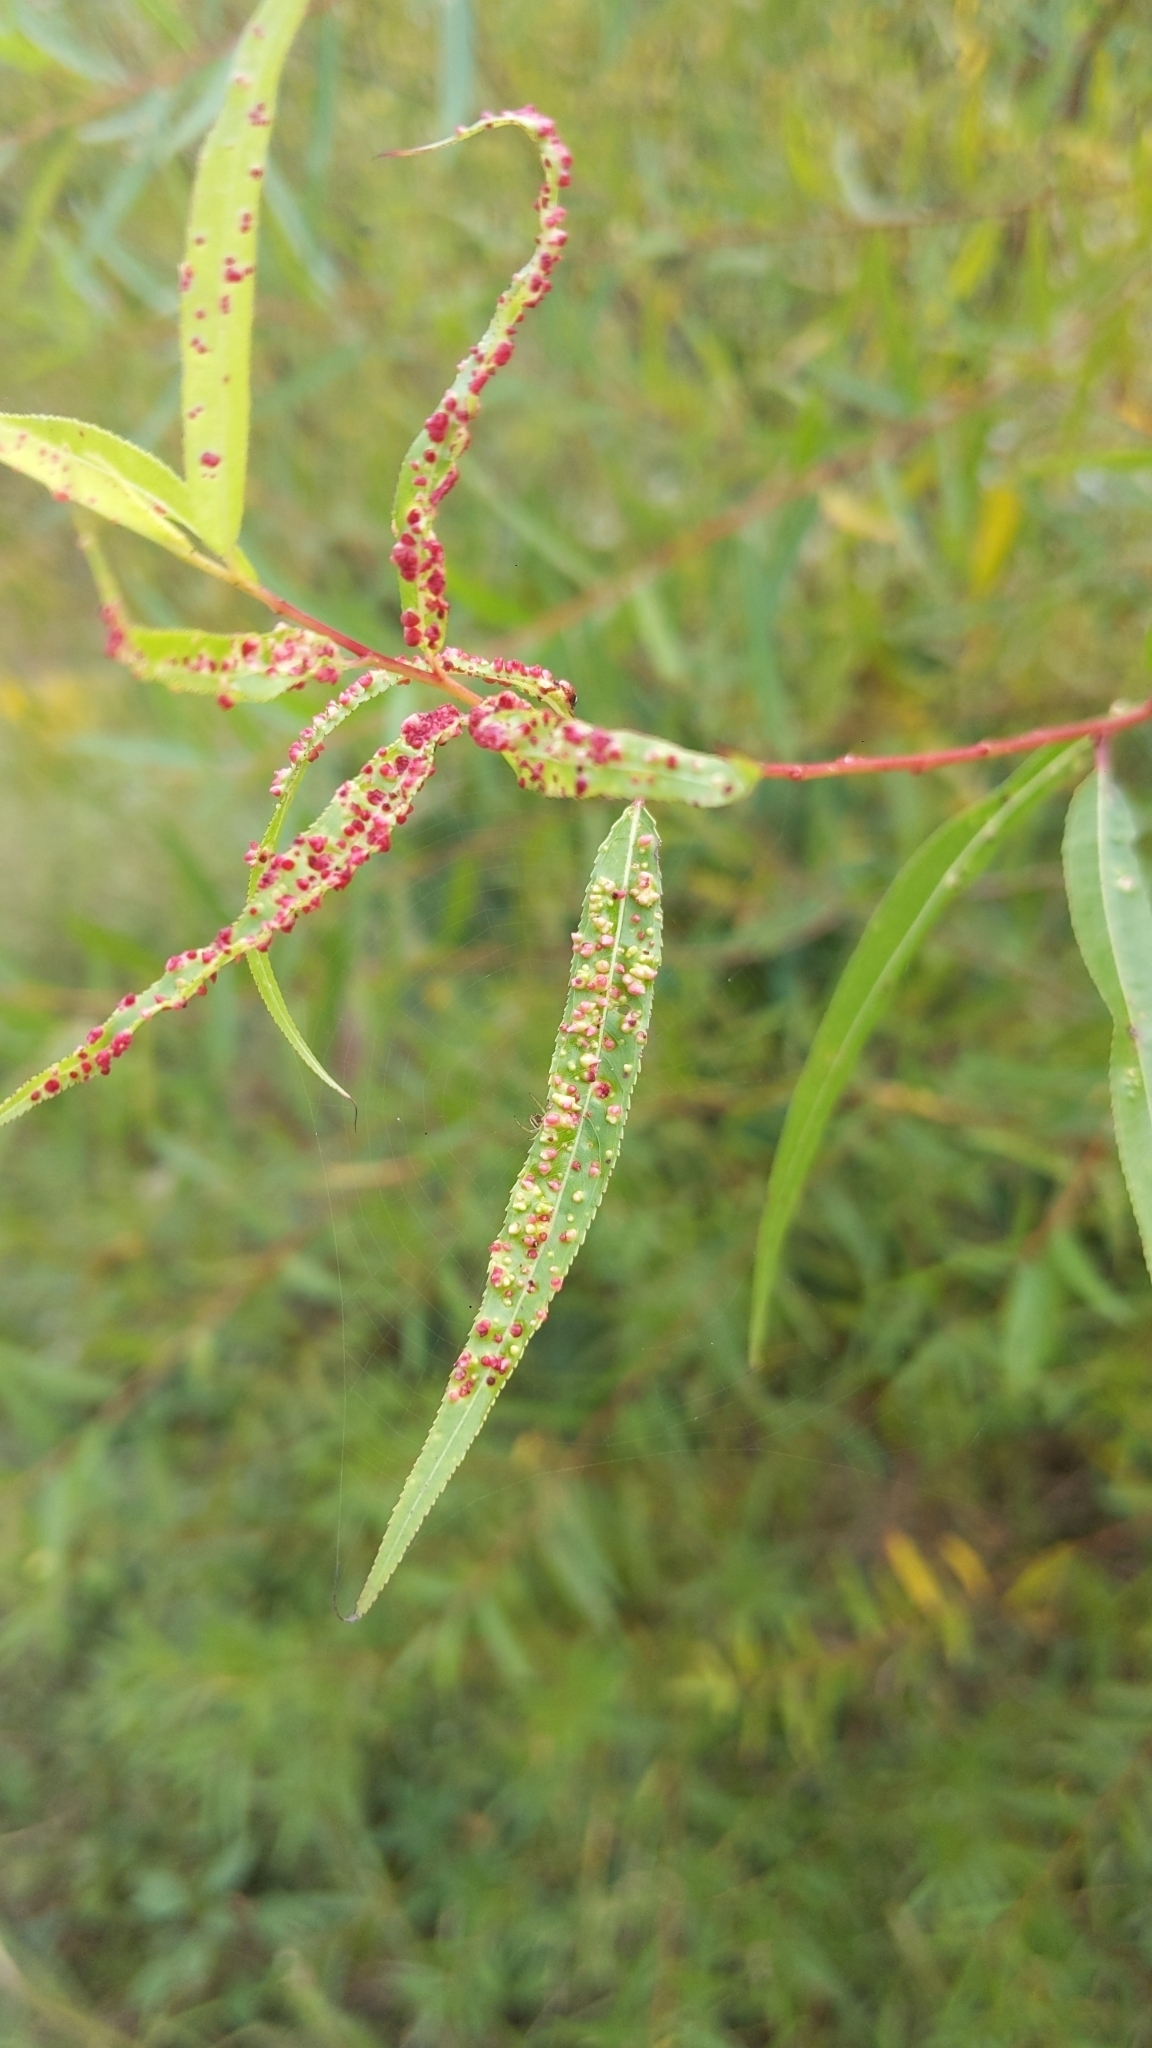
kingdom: Animalia
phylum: Arthropoda
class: Arachnida
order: Trombidiformes
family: Eriophyidae
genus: Aculus
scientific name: Aculus tetanothrix
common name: Willow bead gall mite
